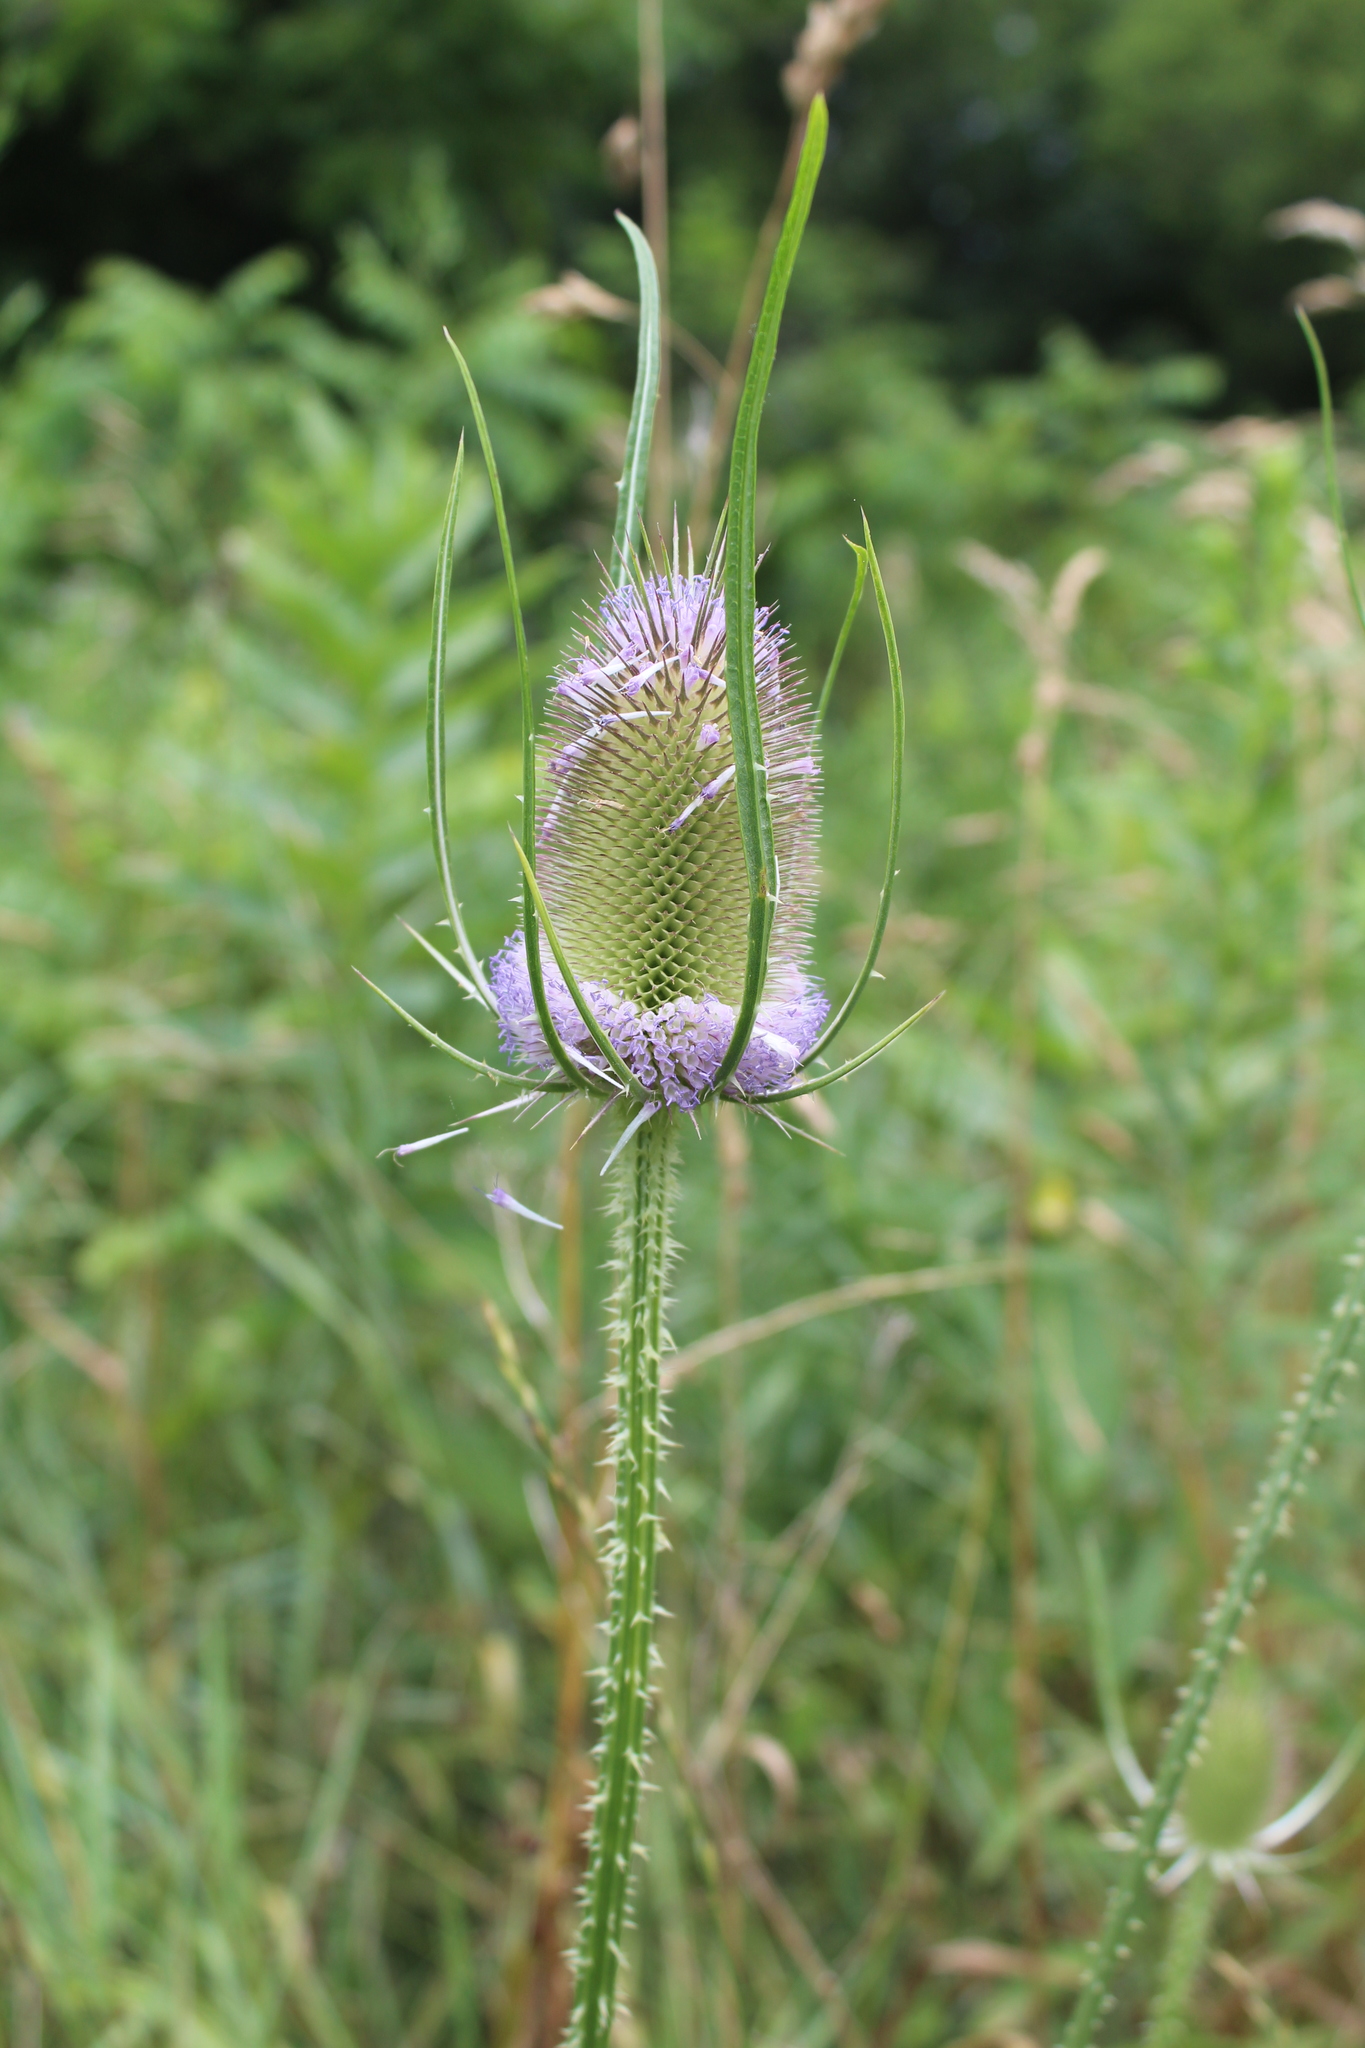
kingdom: Plantae
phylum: Tracheophyta
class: Magnoliopsida
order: Dipsacales
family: Caprifoliaceae
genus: Dipsacus
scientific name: Dipsacus fullonum
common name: Teasel
